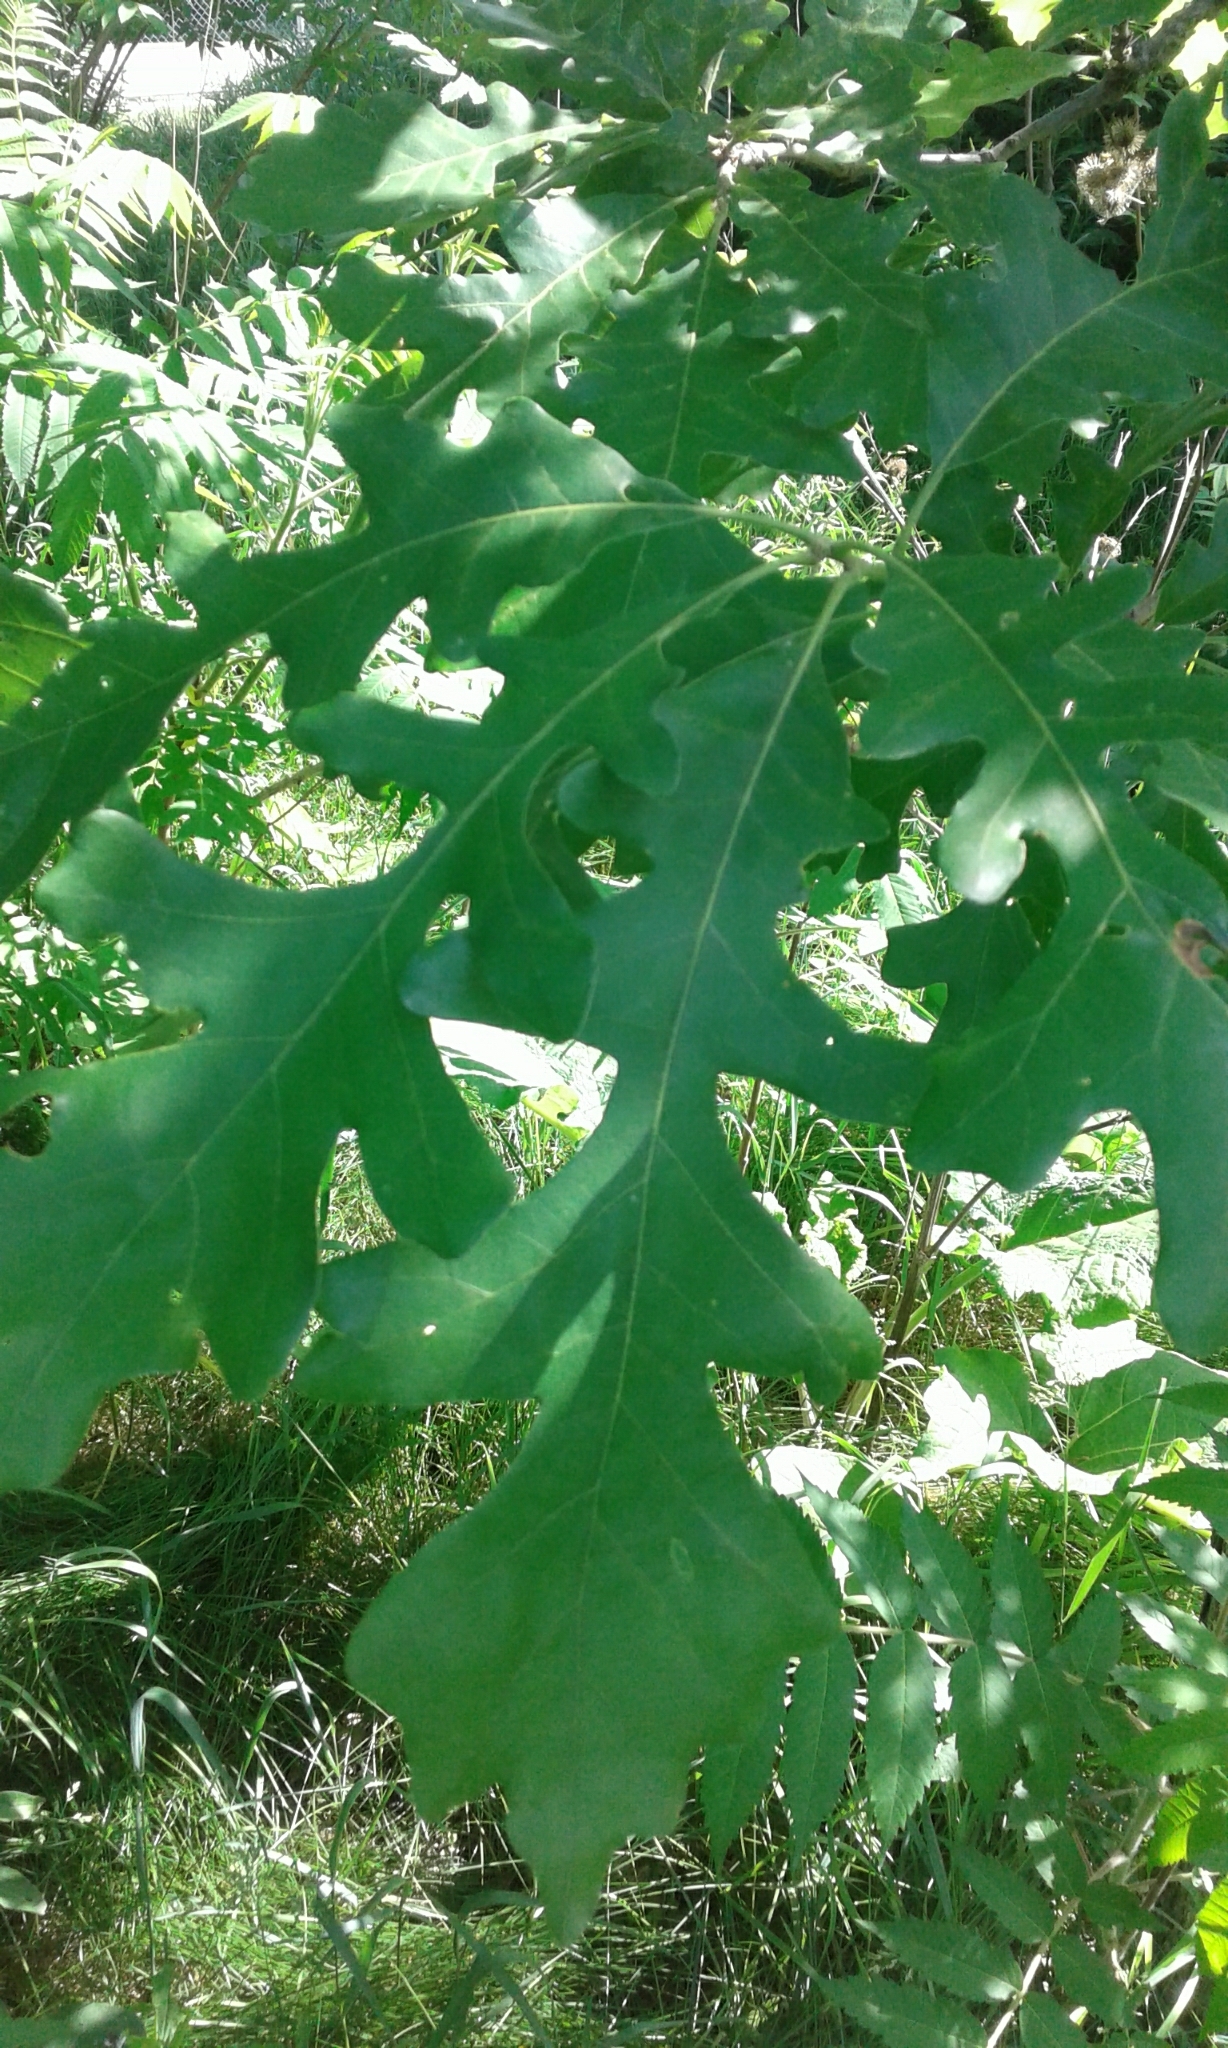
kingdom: Plantae
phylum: Tracheophyta
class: Magnoliopsida
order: Fagales
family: Fagaceae
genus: Quercus
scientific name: Quercus macrocarpa
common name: Bur oak
